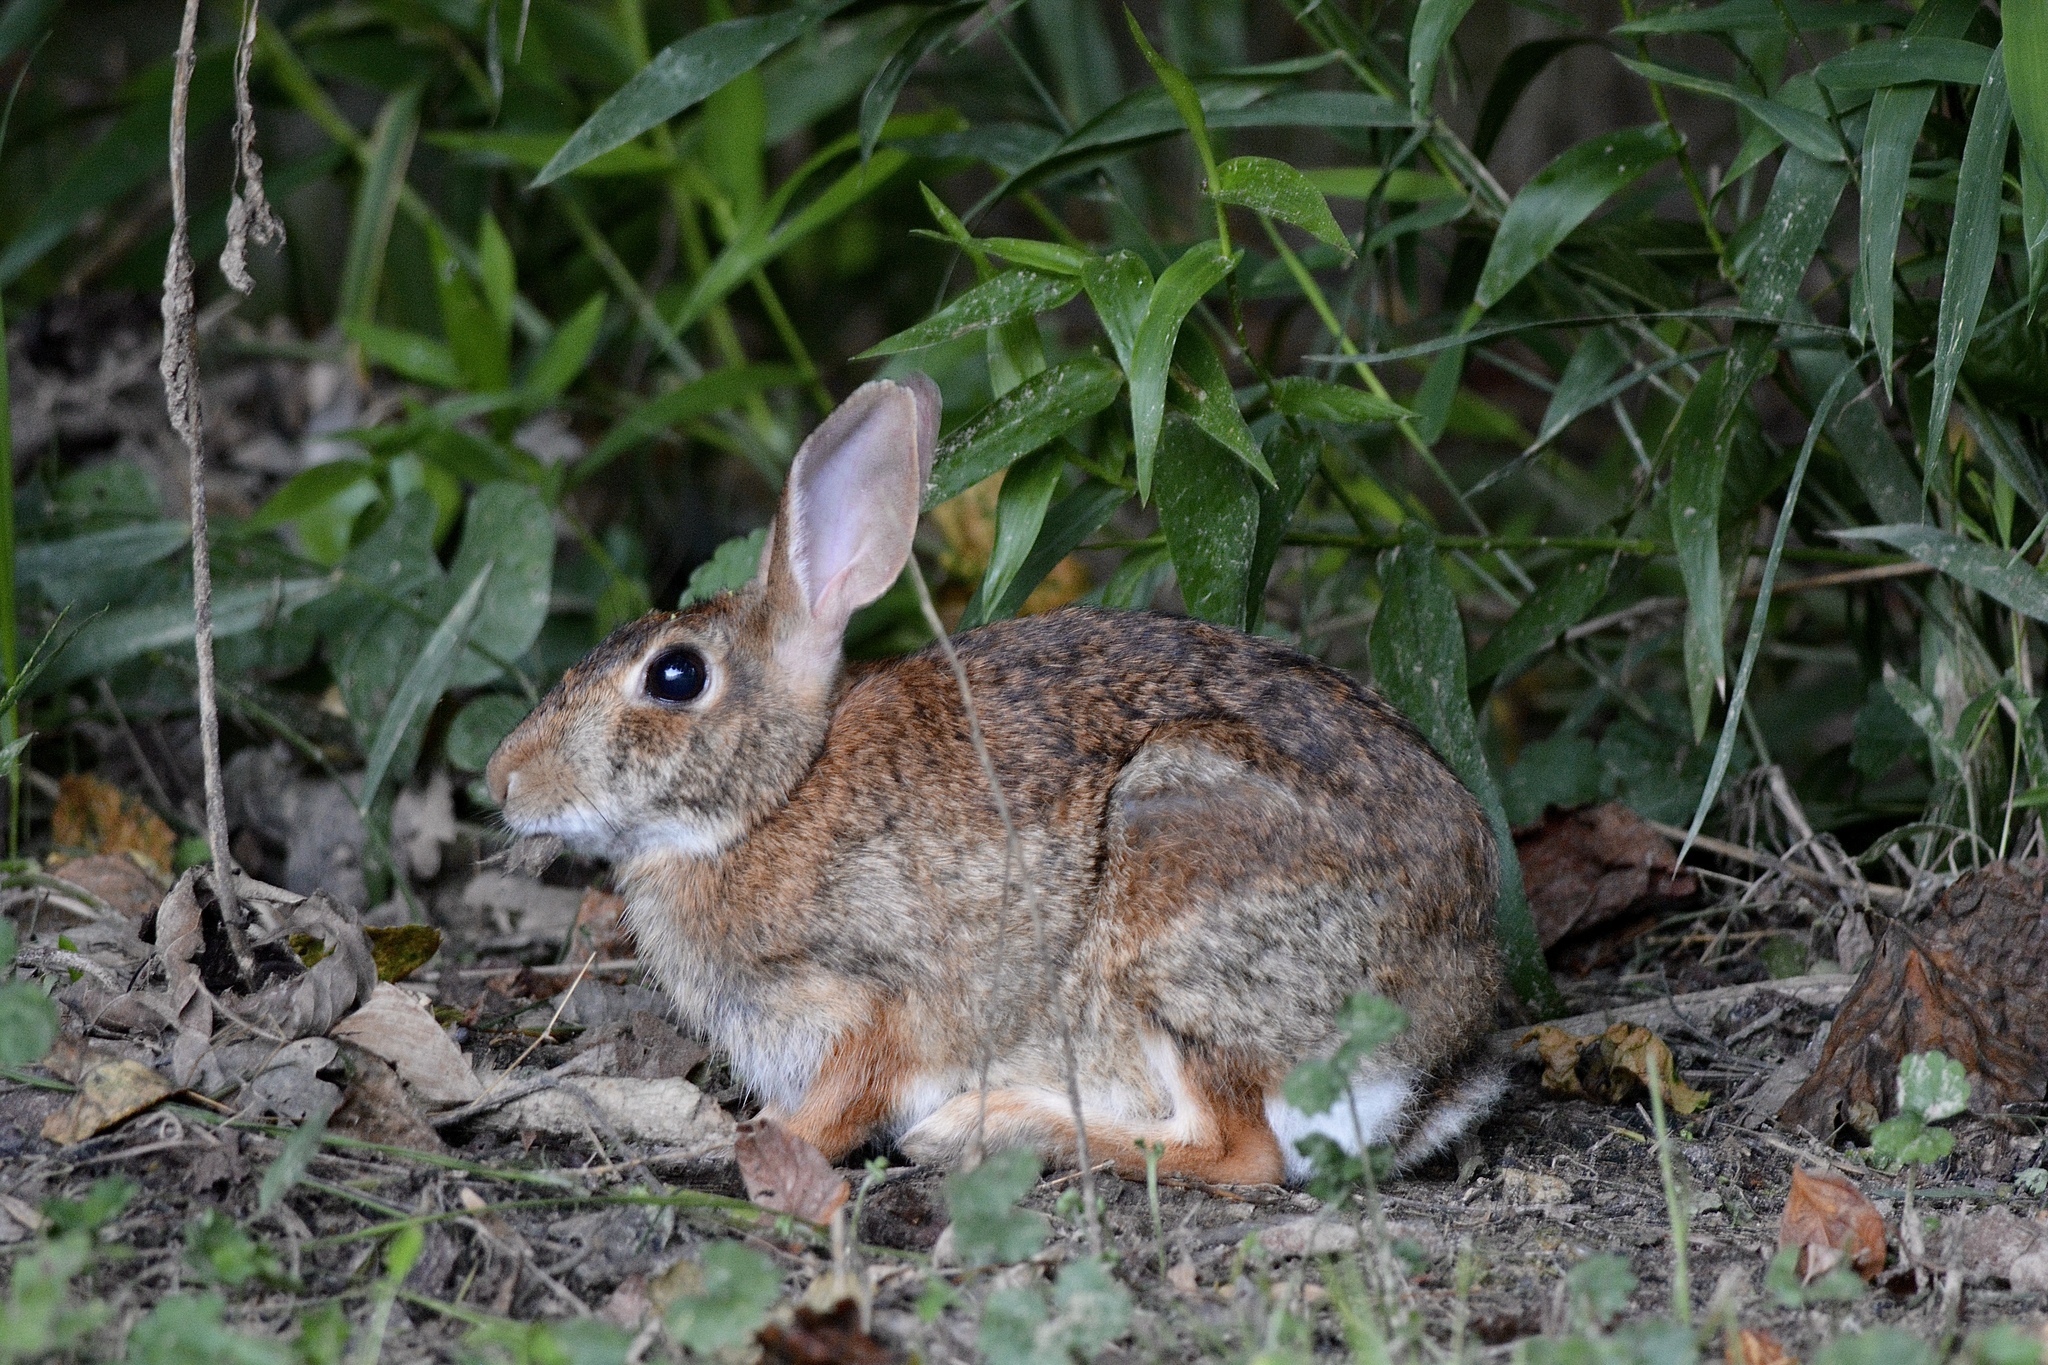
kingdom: Animalia
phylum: Chordata
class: Mammalia
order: Lagomorpha
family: Leporidae
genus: Sylvilagus
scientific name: Sylvilagus floridanus
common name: Eastern cottontail
